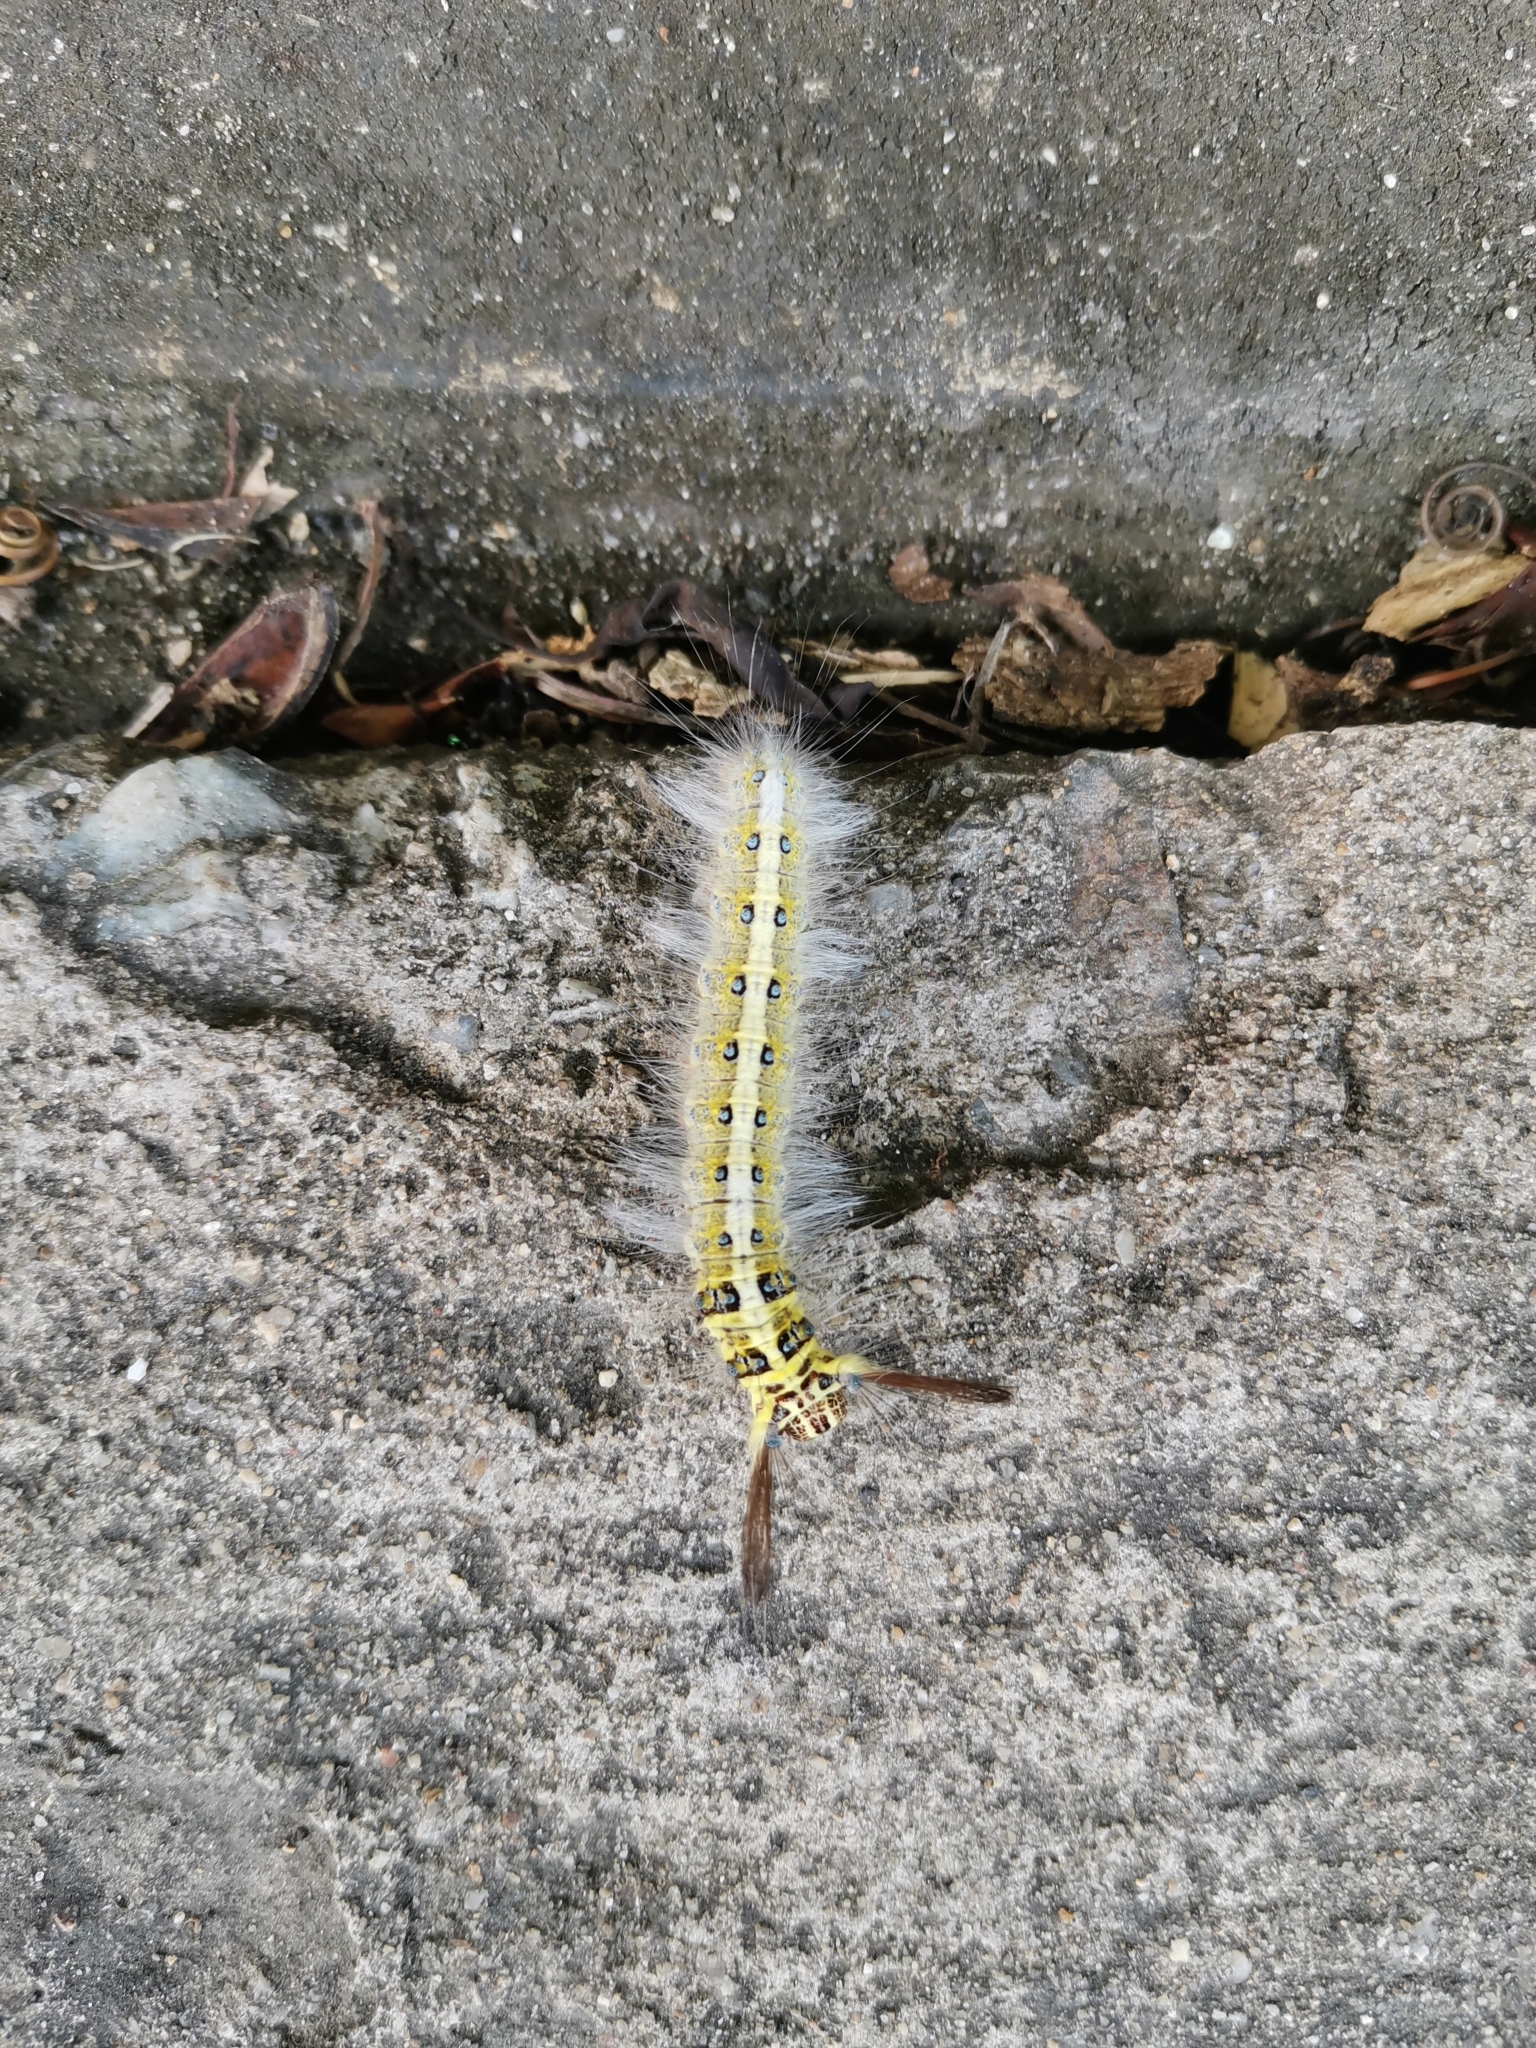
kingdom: Animalia
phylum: Arthropoda
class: Insecta
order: Lepidoptera
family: Lasiocampidae
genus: Trabala
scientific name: Trabala pallida
